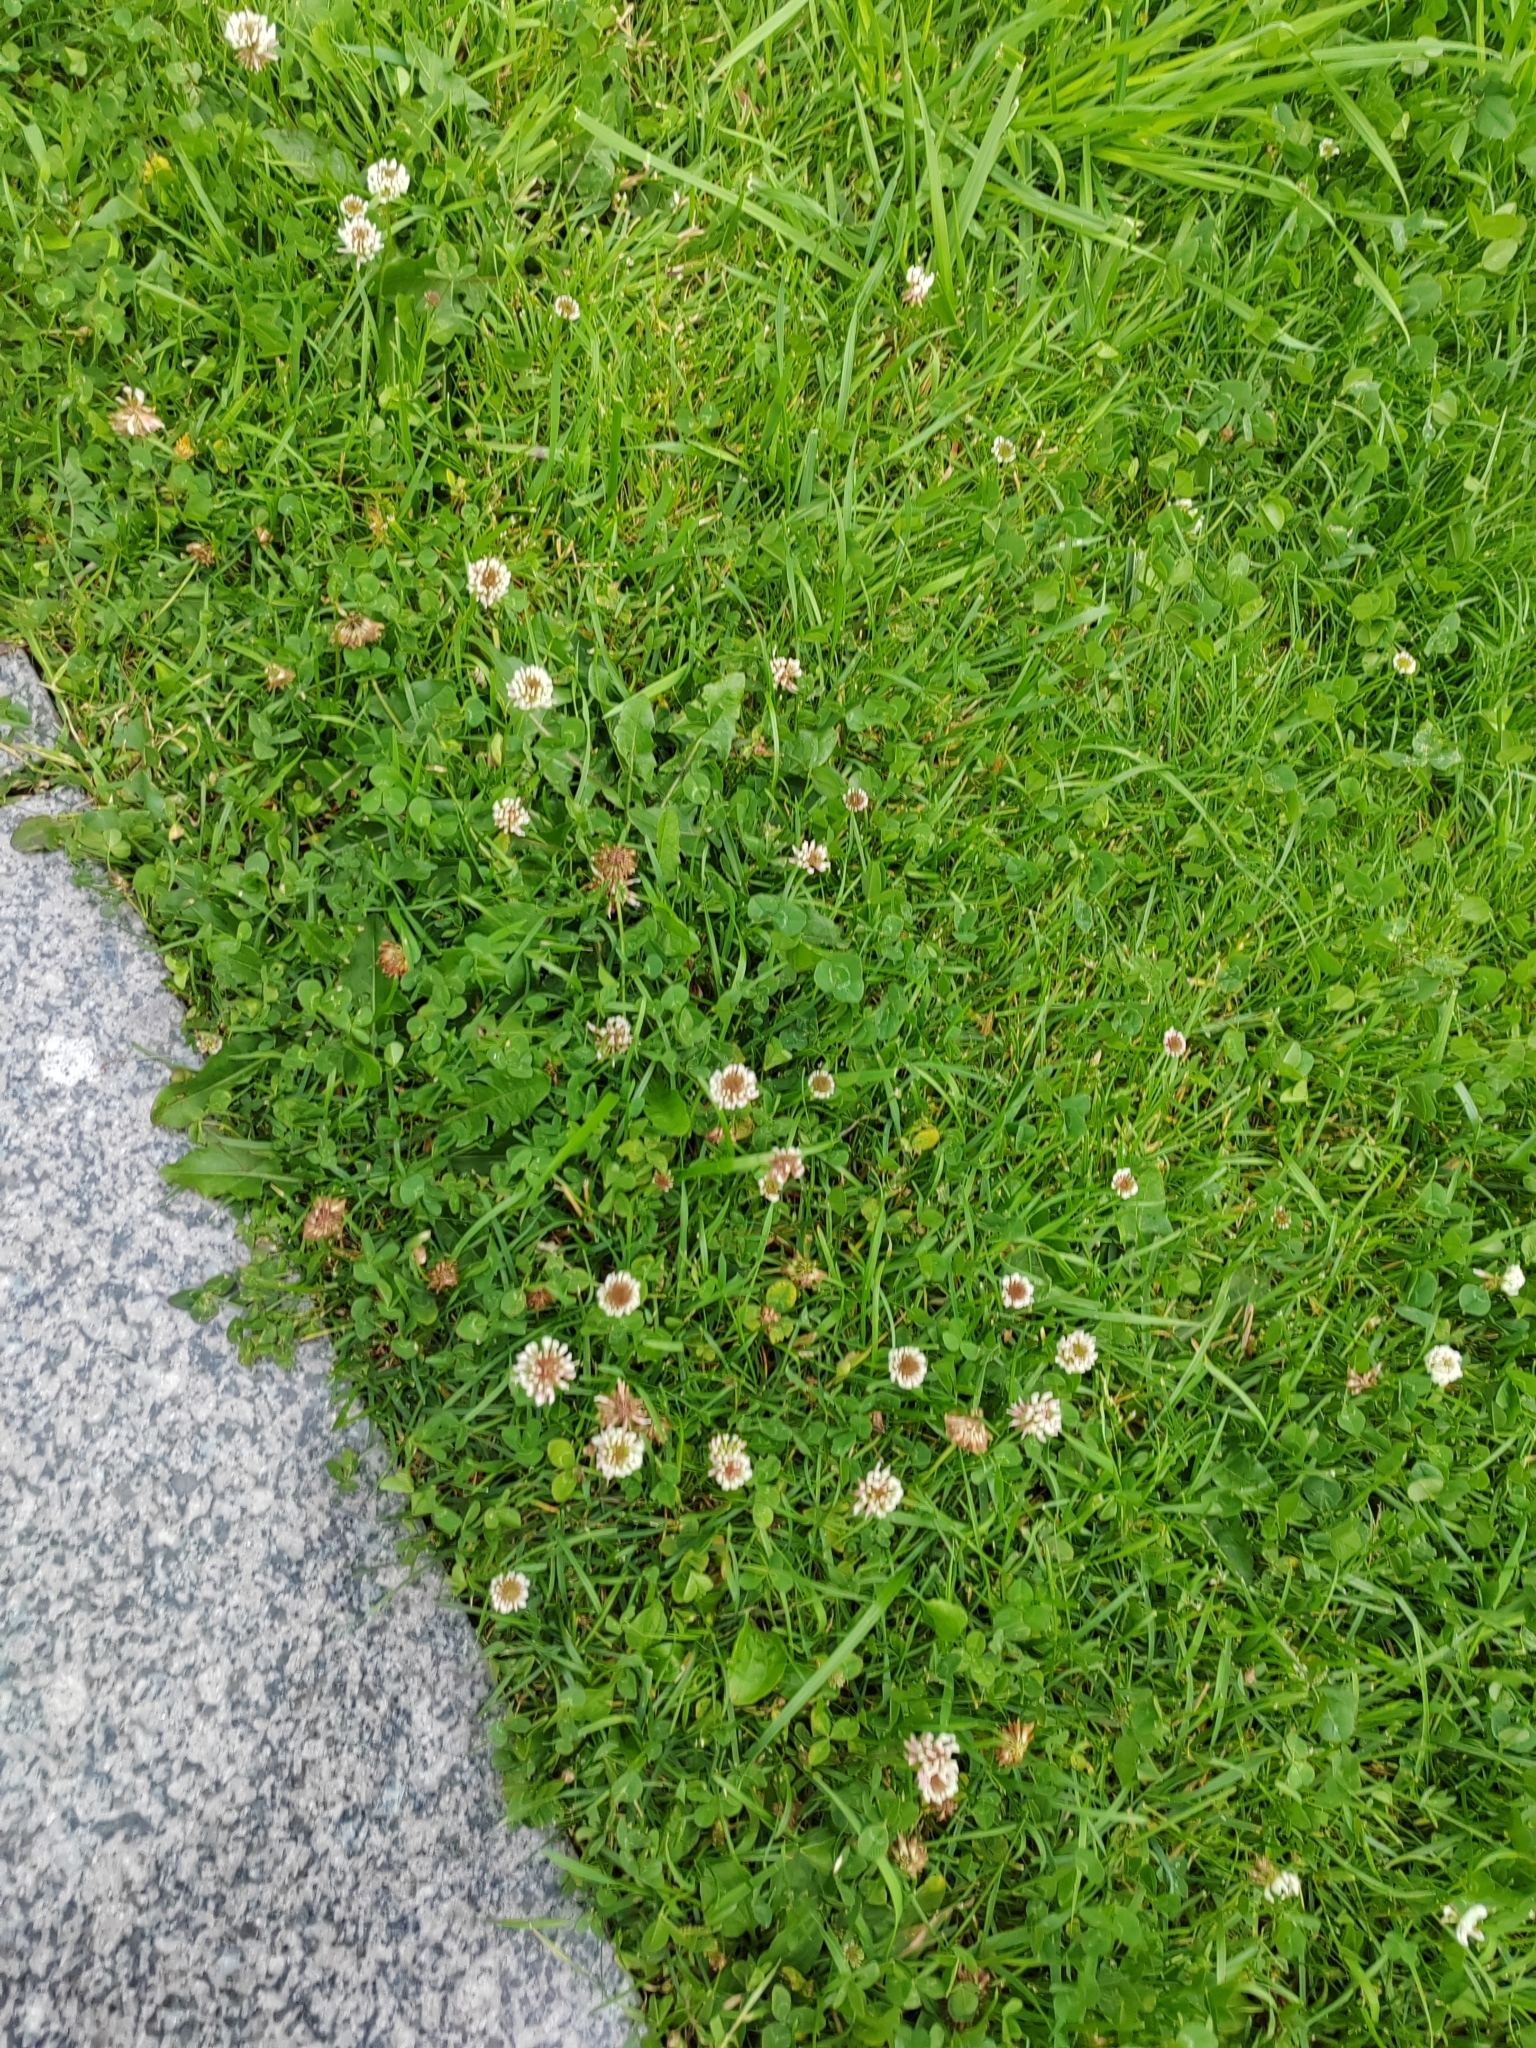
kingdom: Plantae
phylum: Tracheophyta
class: Magnoliopsida
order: Fabales
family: Fabaceae
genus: Trifolium
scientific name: Trifolium repens
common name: White clover
